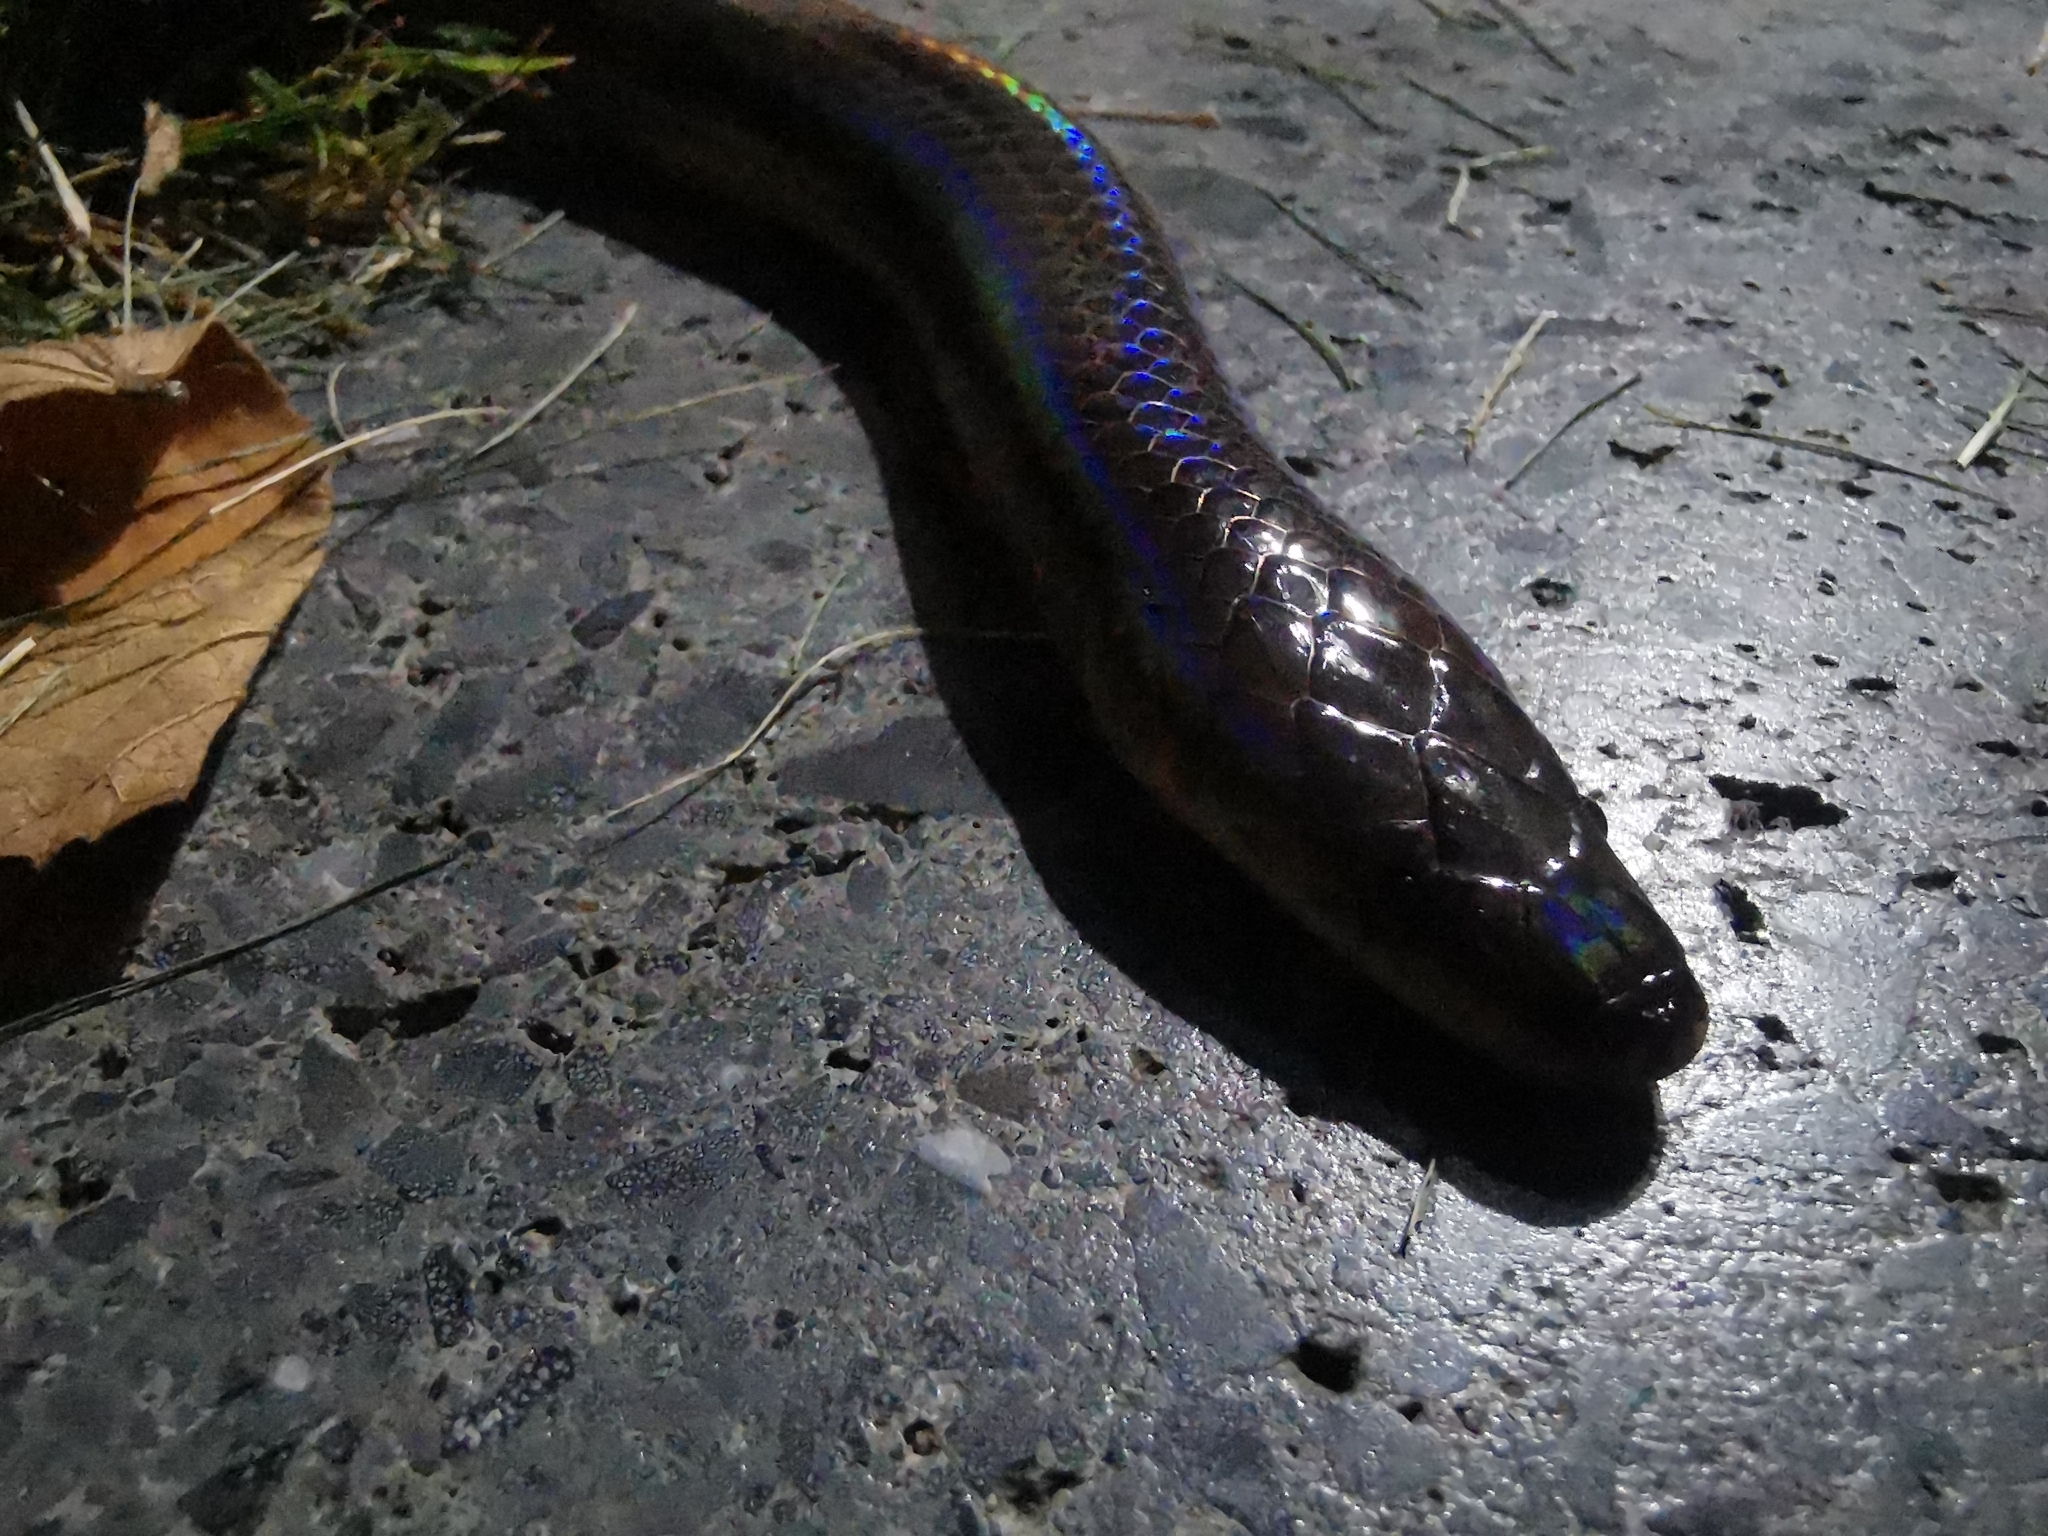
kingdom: Animalia
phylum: Chordata
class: Squamata
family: Xenopeltidae
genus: Xenopeltis
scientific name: Xenopeltis unicolor
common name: Sunbeam snake
